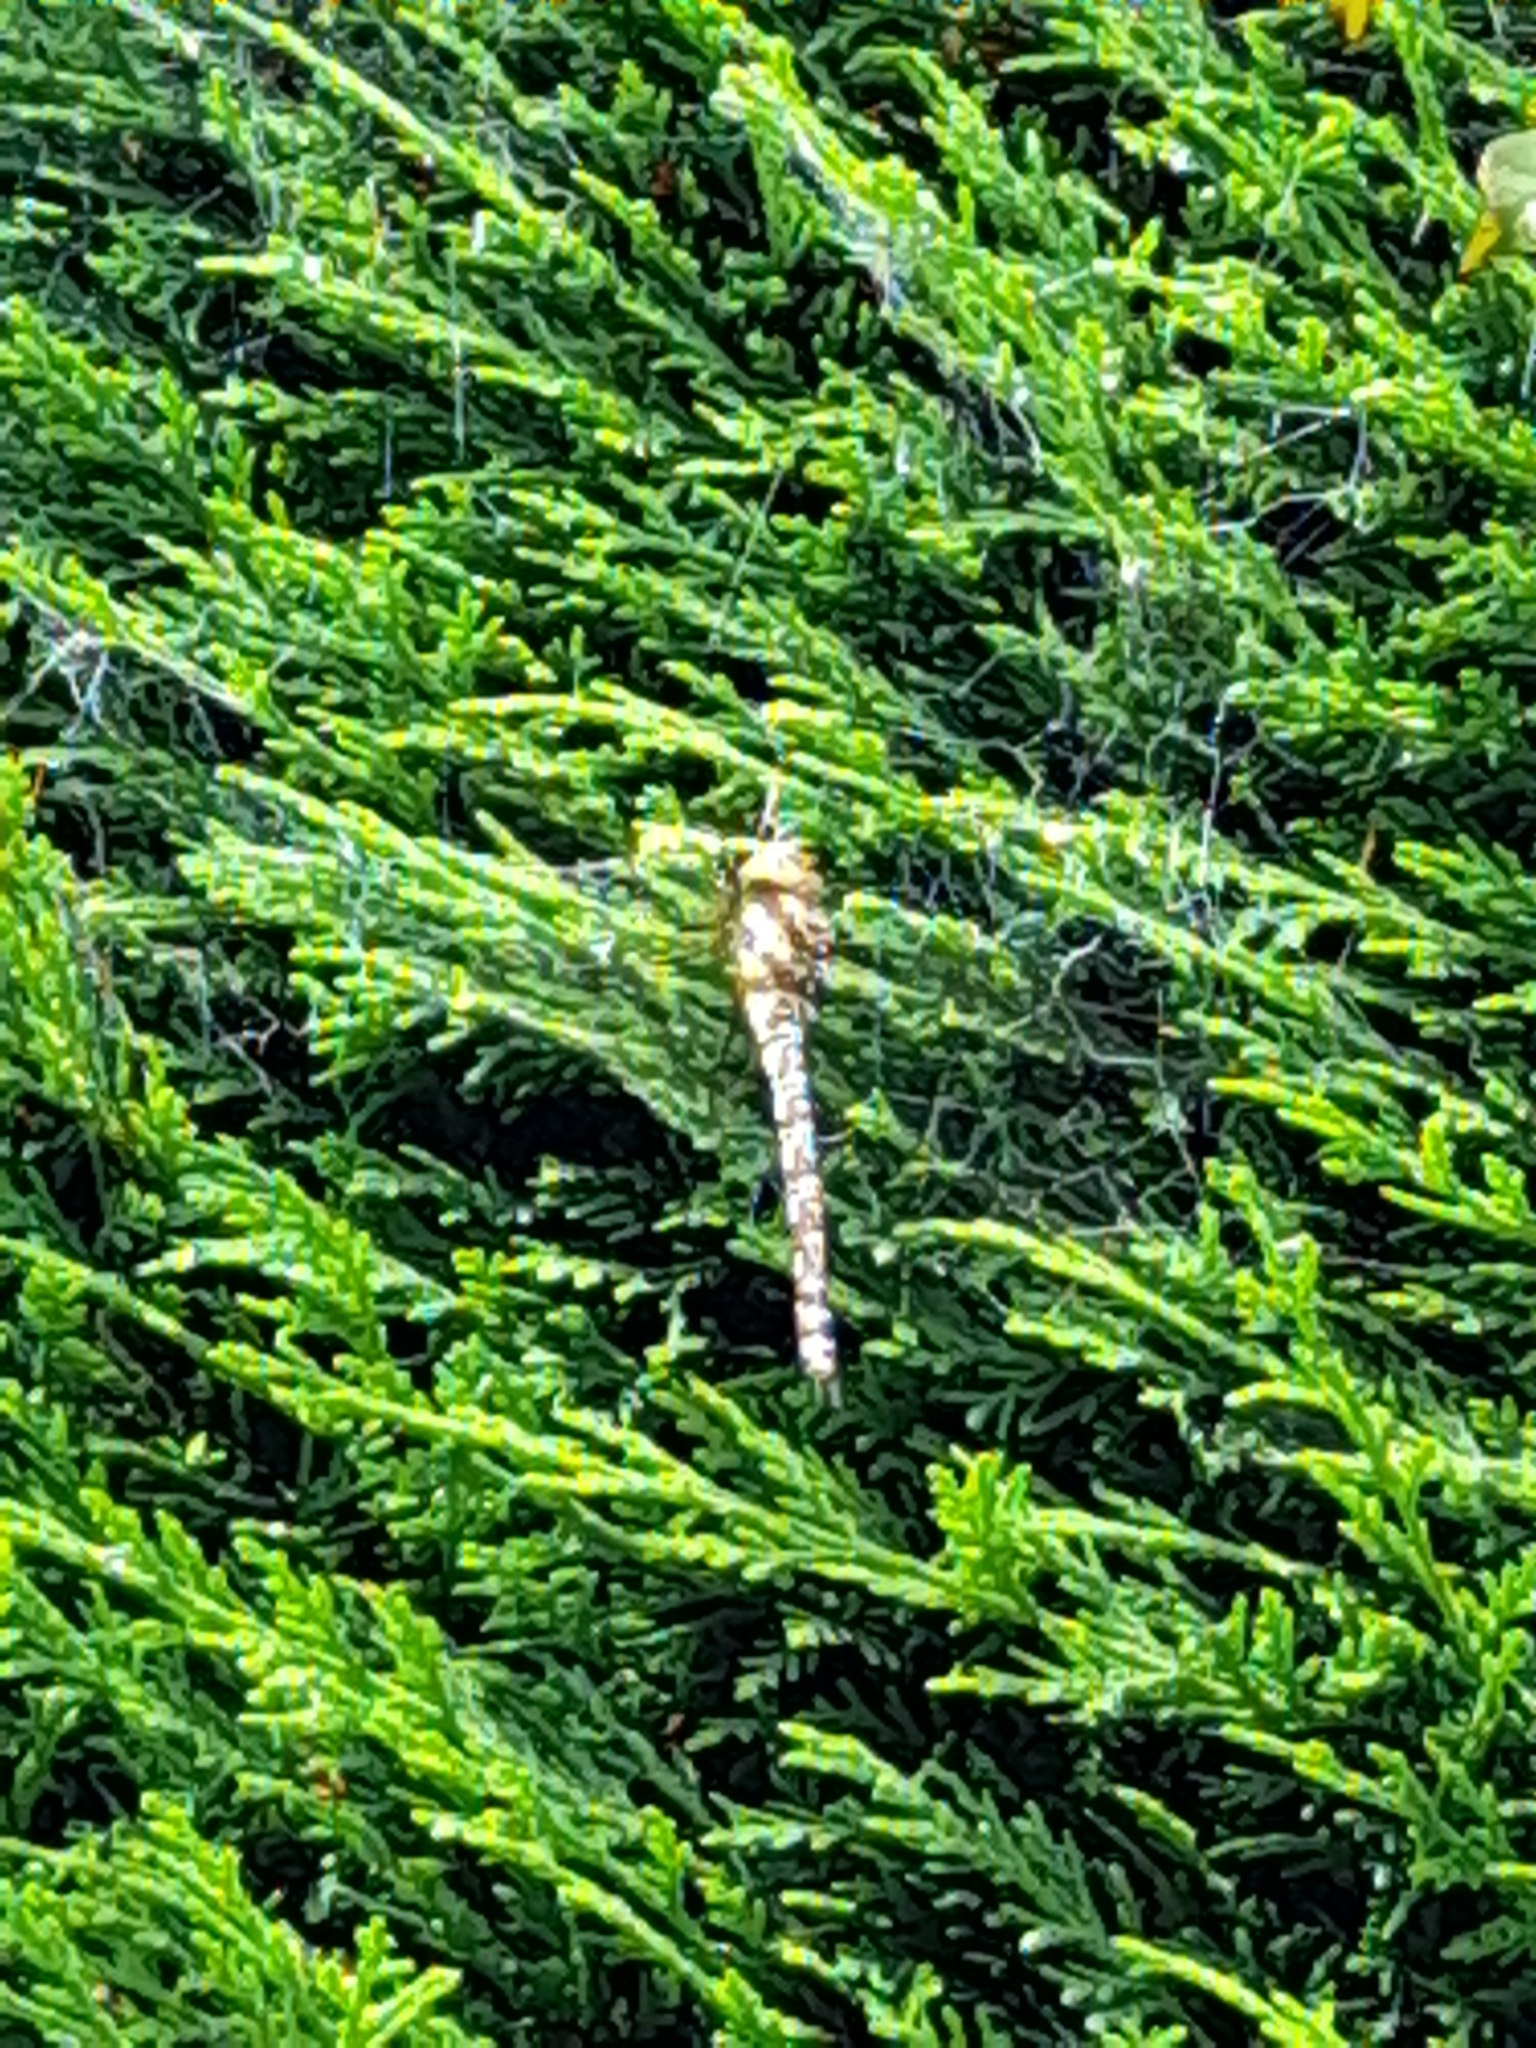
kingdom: Animalia
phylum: Arthropoda
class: Insecta
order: Odonata
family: Aeshnidae
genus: Aeshna
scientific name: Aeshna cyanea
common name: Southern hawker
